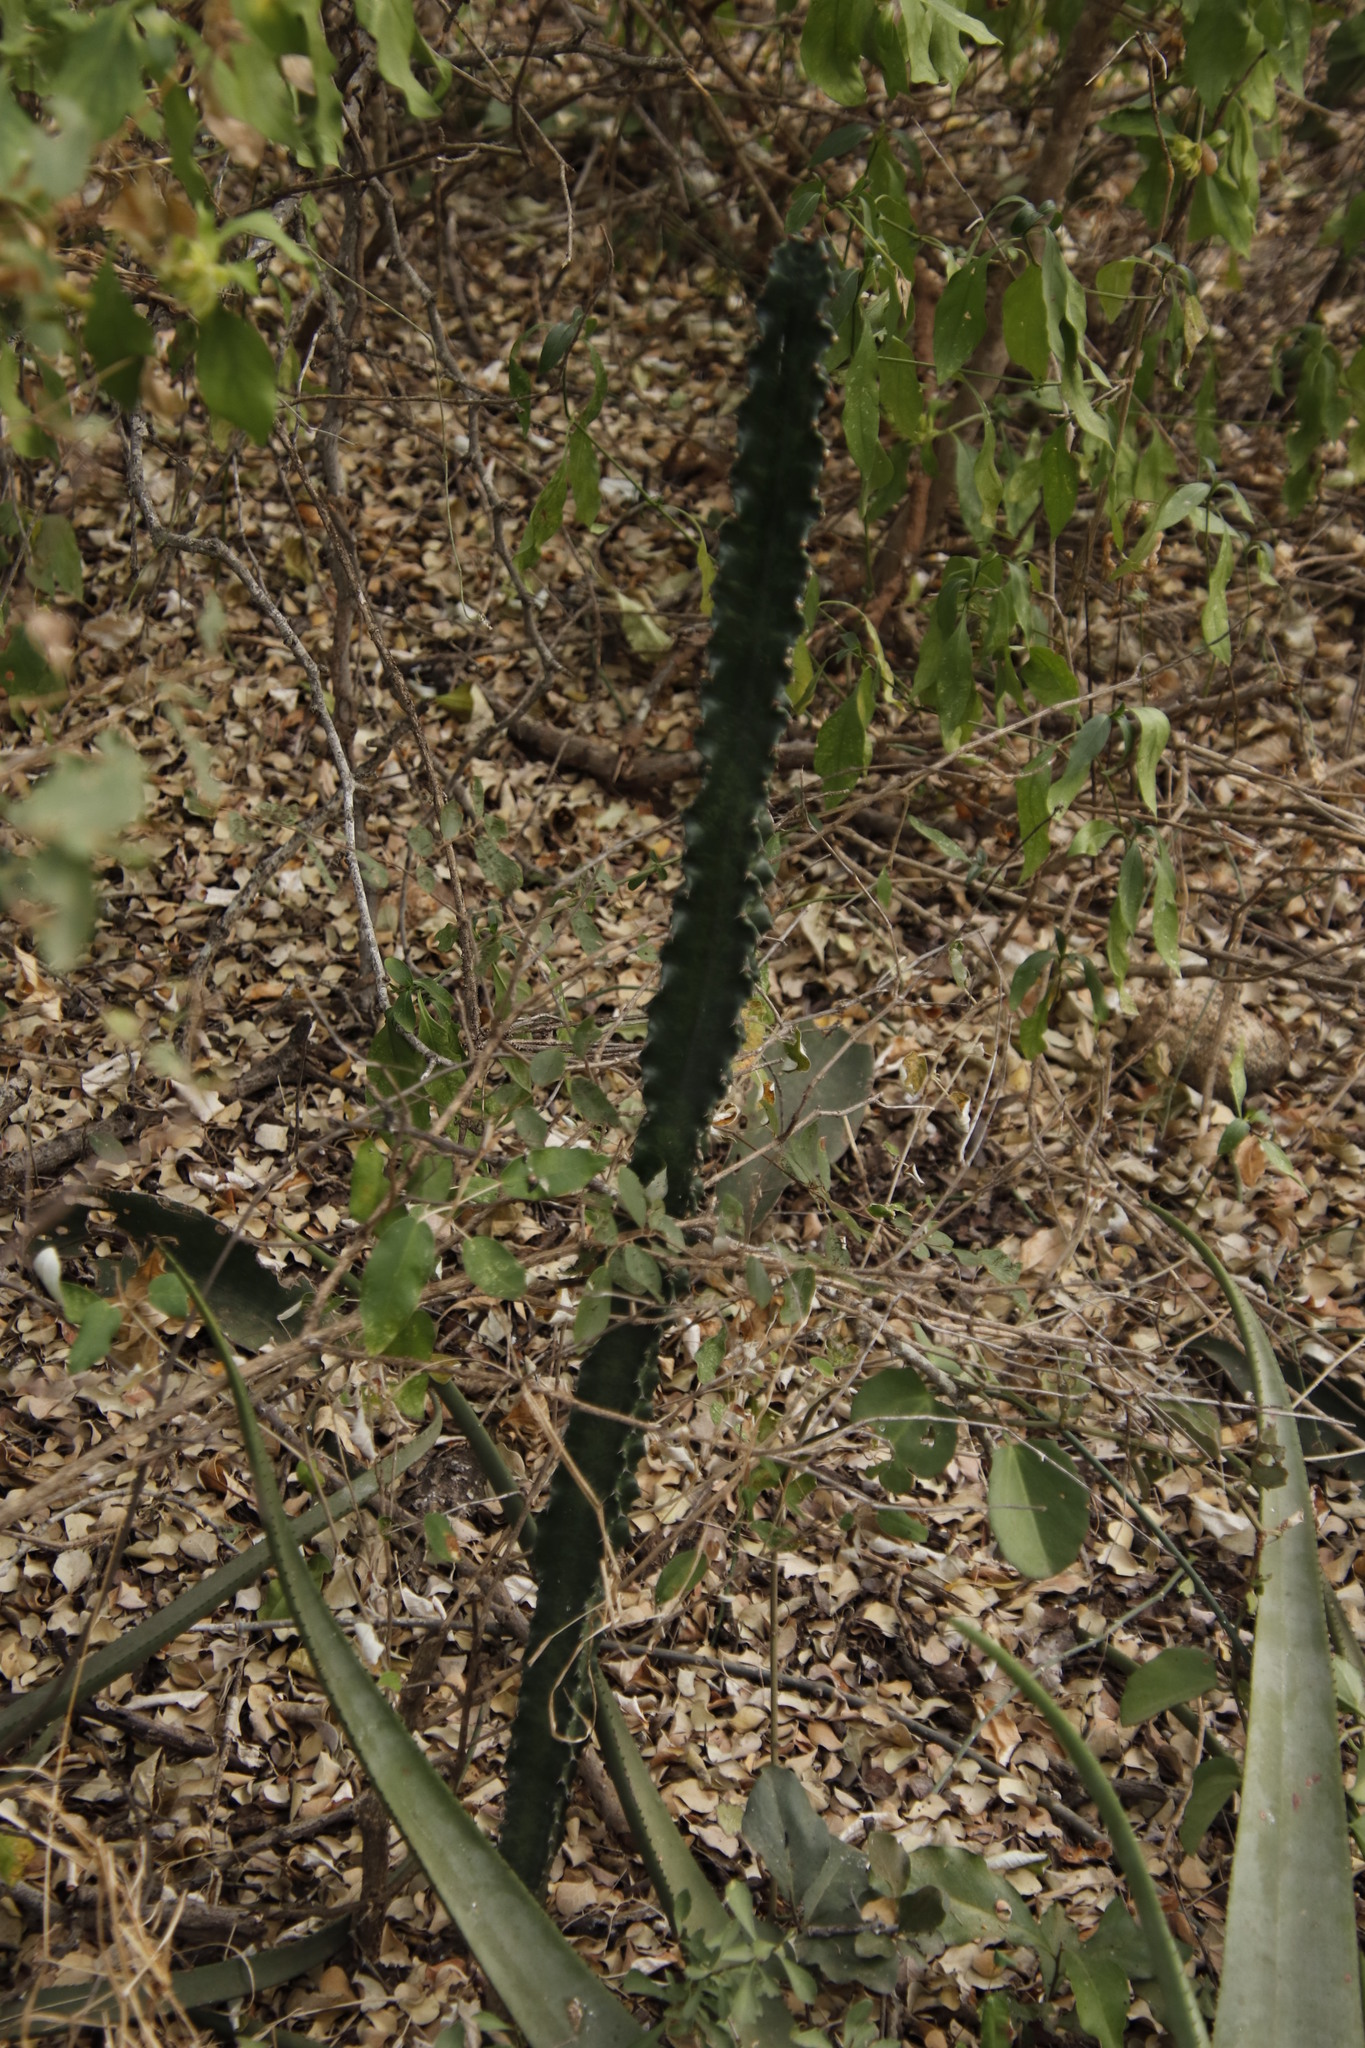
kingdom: Plantae
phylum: Tracheophyta
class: Magnoliopsida
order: Malpighiales
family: Euphorbiaceae
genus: Euphorbia
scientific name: Euphorbia ingens
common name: Cactus spurge
